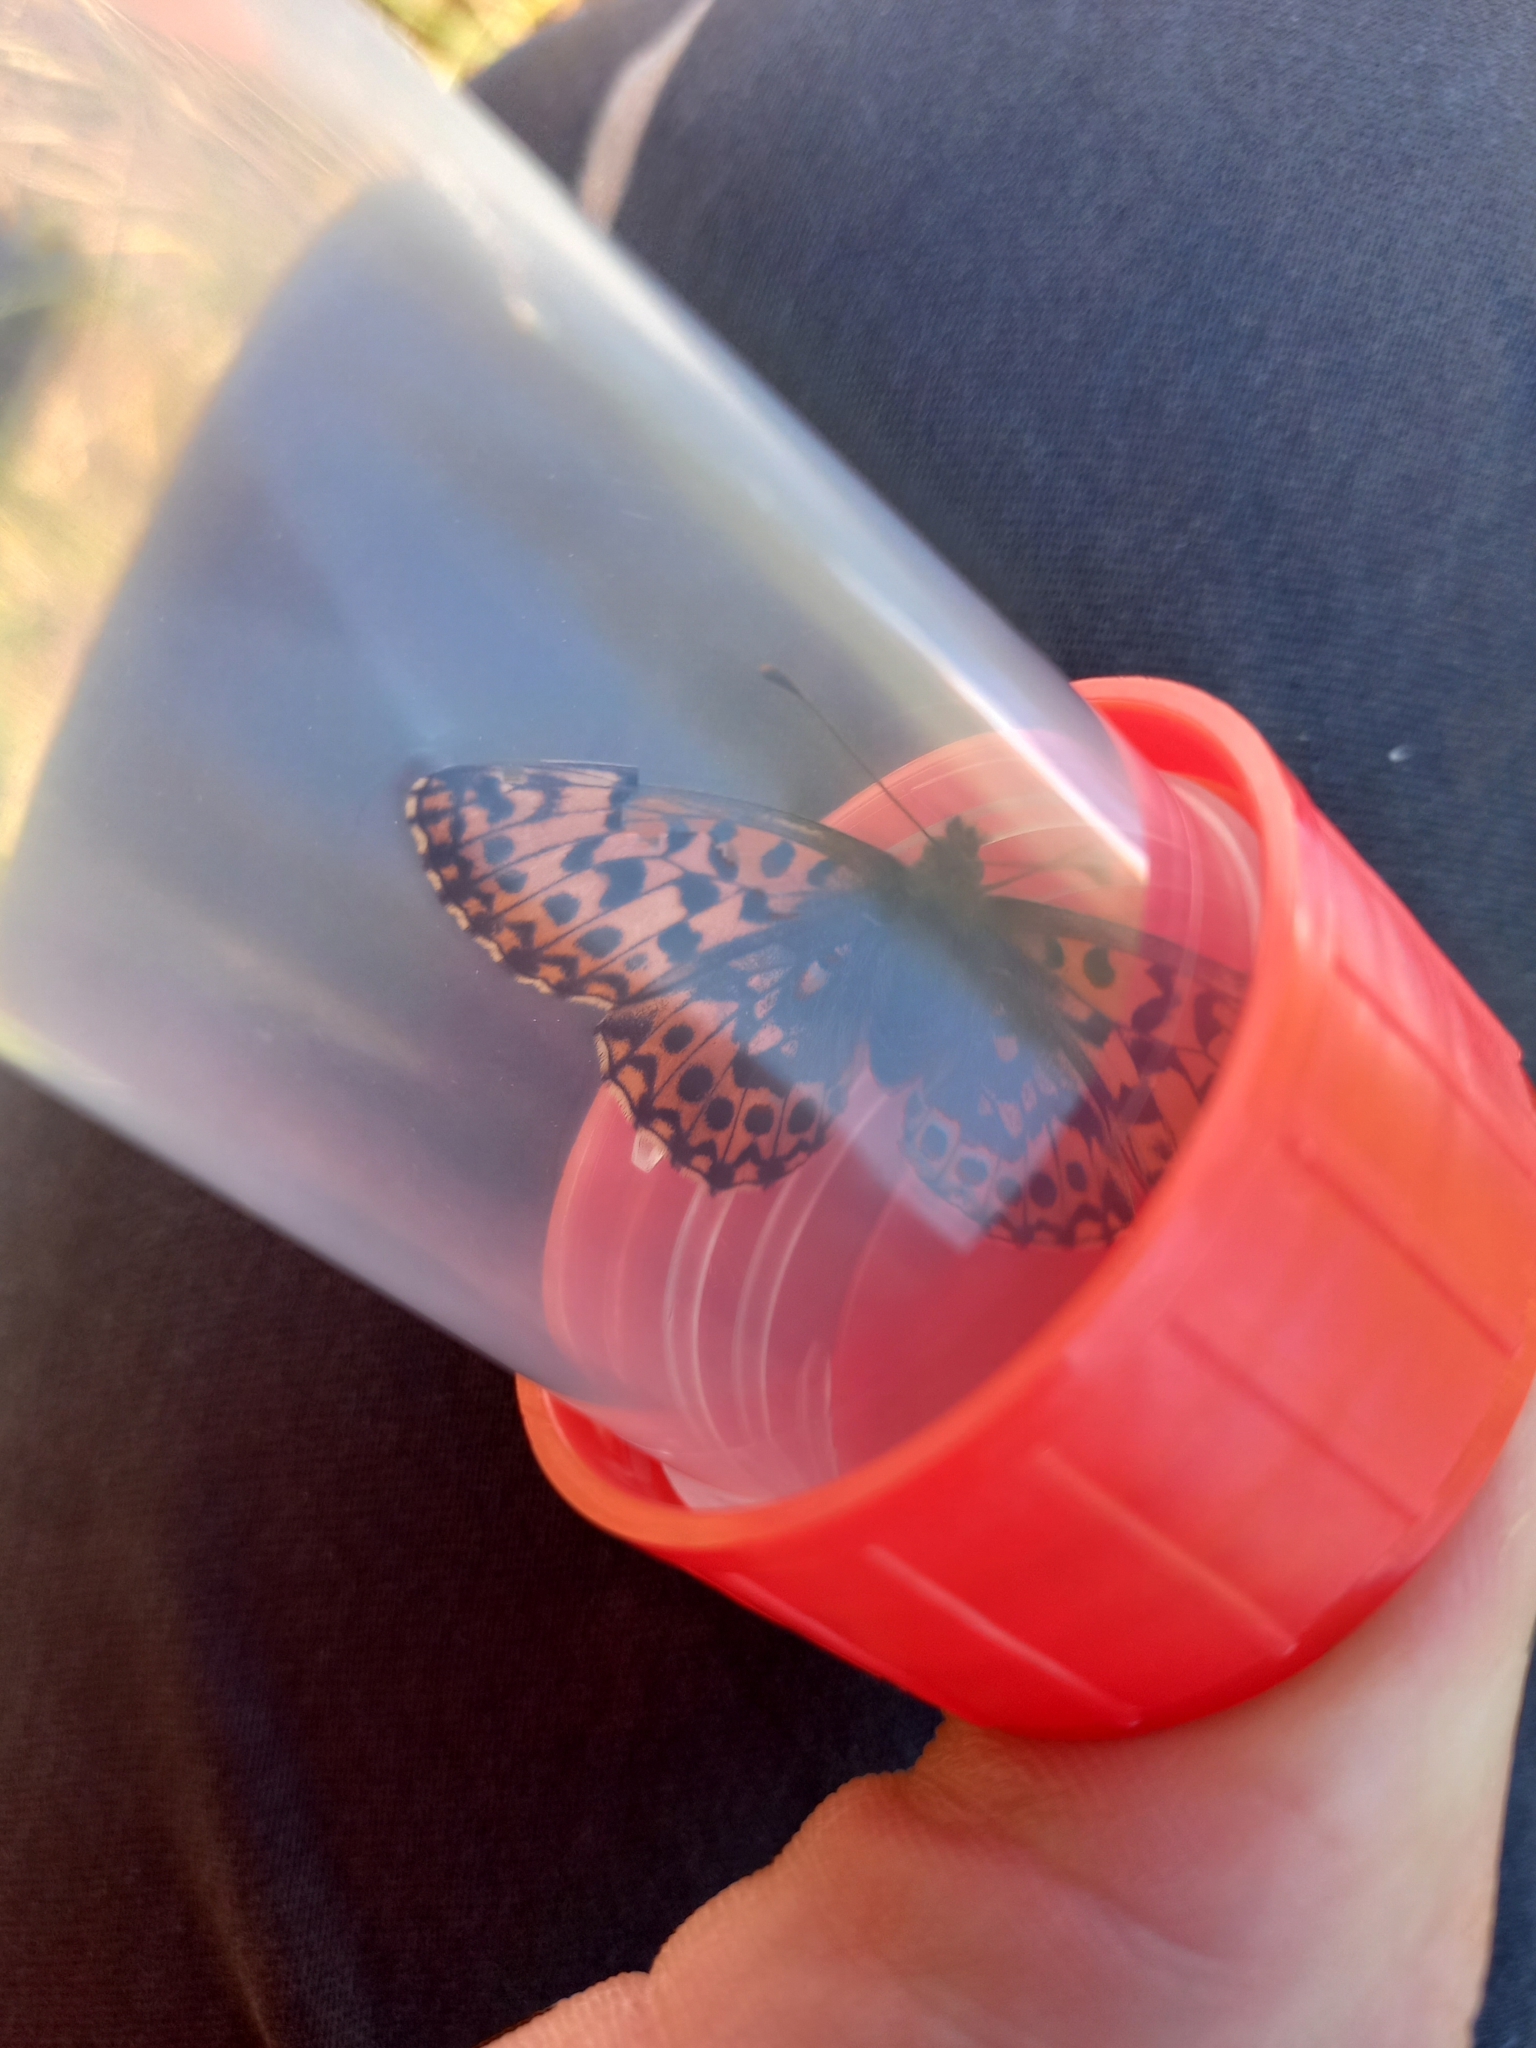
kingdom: Animalia
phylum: Arthropoda
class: Insecta
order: Lepidoptera
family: Nymphalidae
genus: Boloria
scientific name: Boloria dia
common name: Weaver's fritillary
